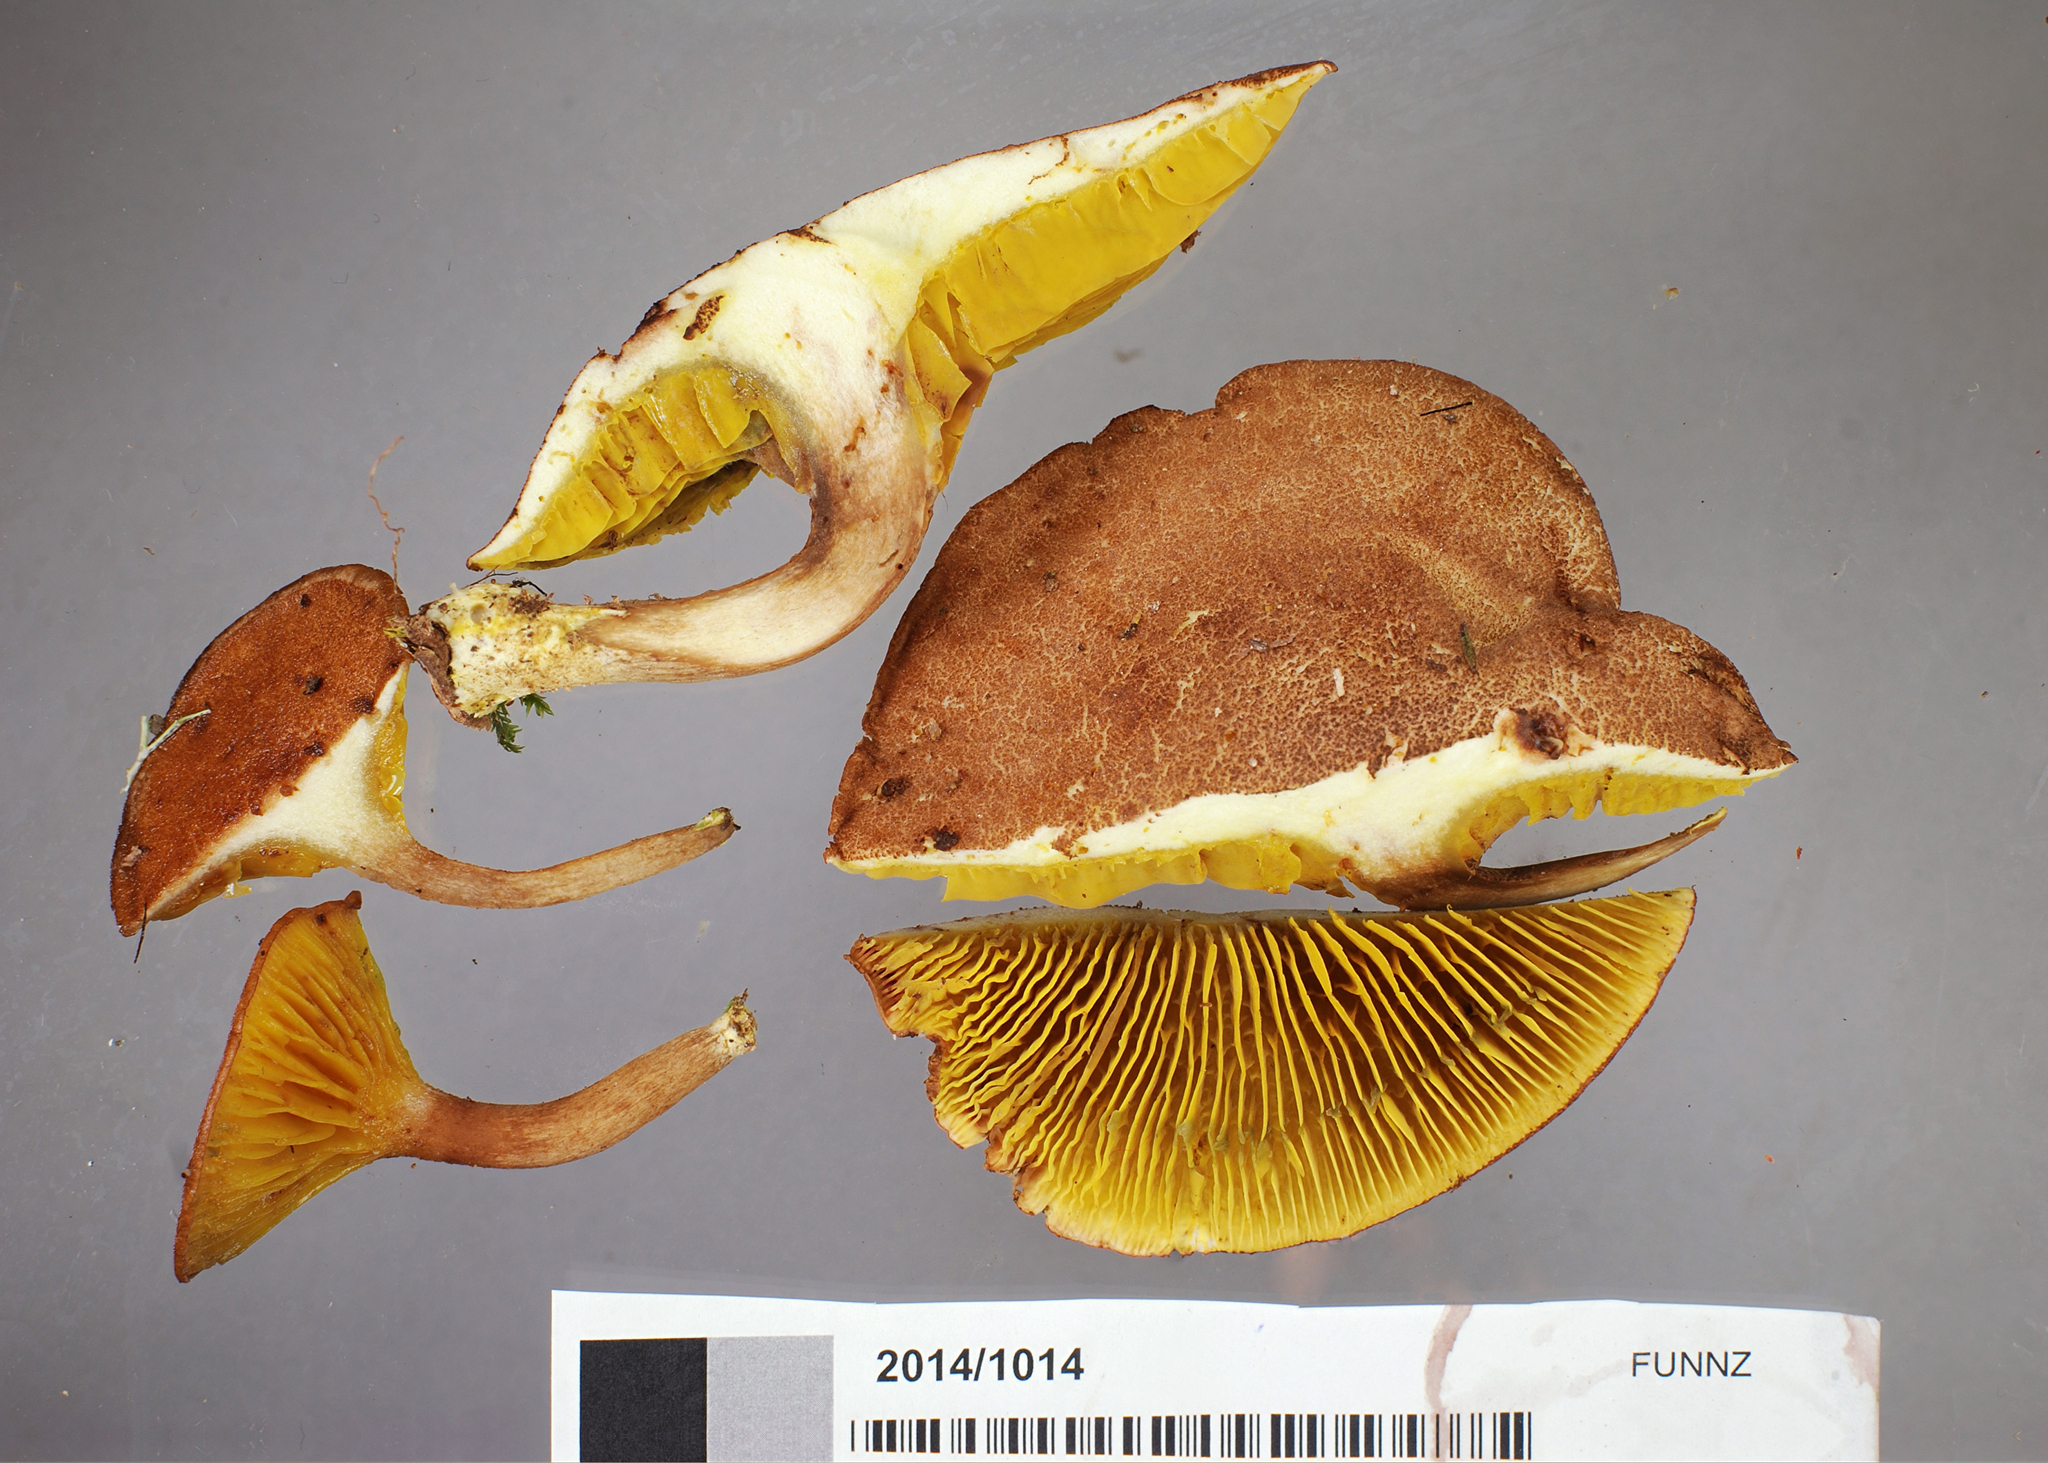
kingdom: Fungi
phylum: Basidiomycota
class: Agaricomycetes
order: Boletales
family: Boletaceae
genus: Phylloporus
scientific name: Phylloporus novae-zelandiae
